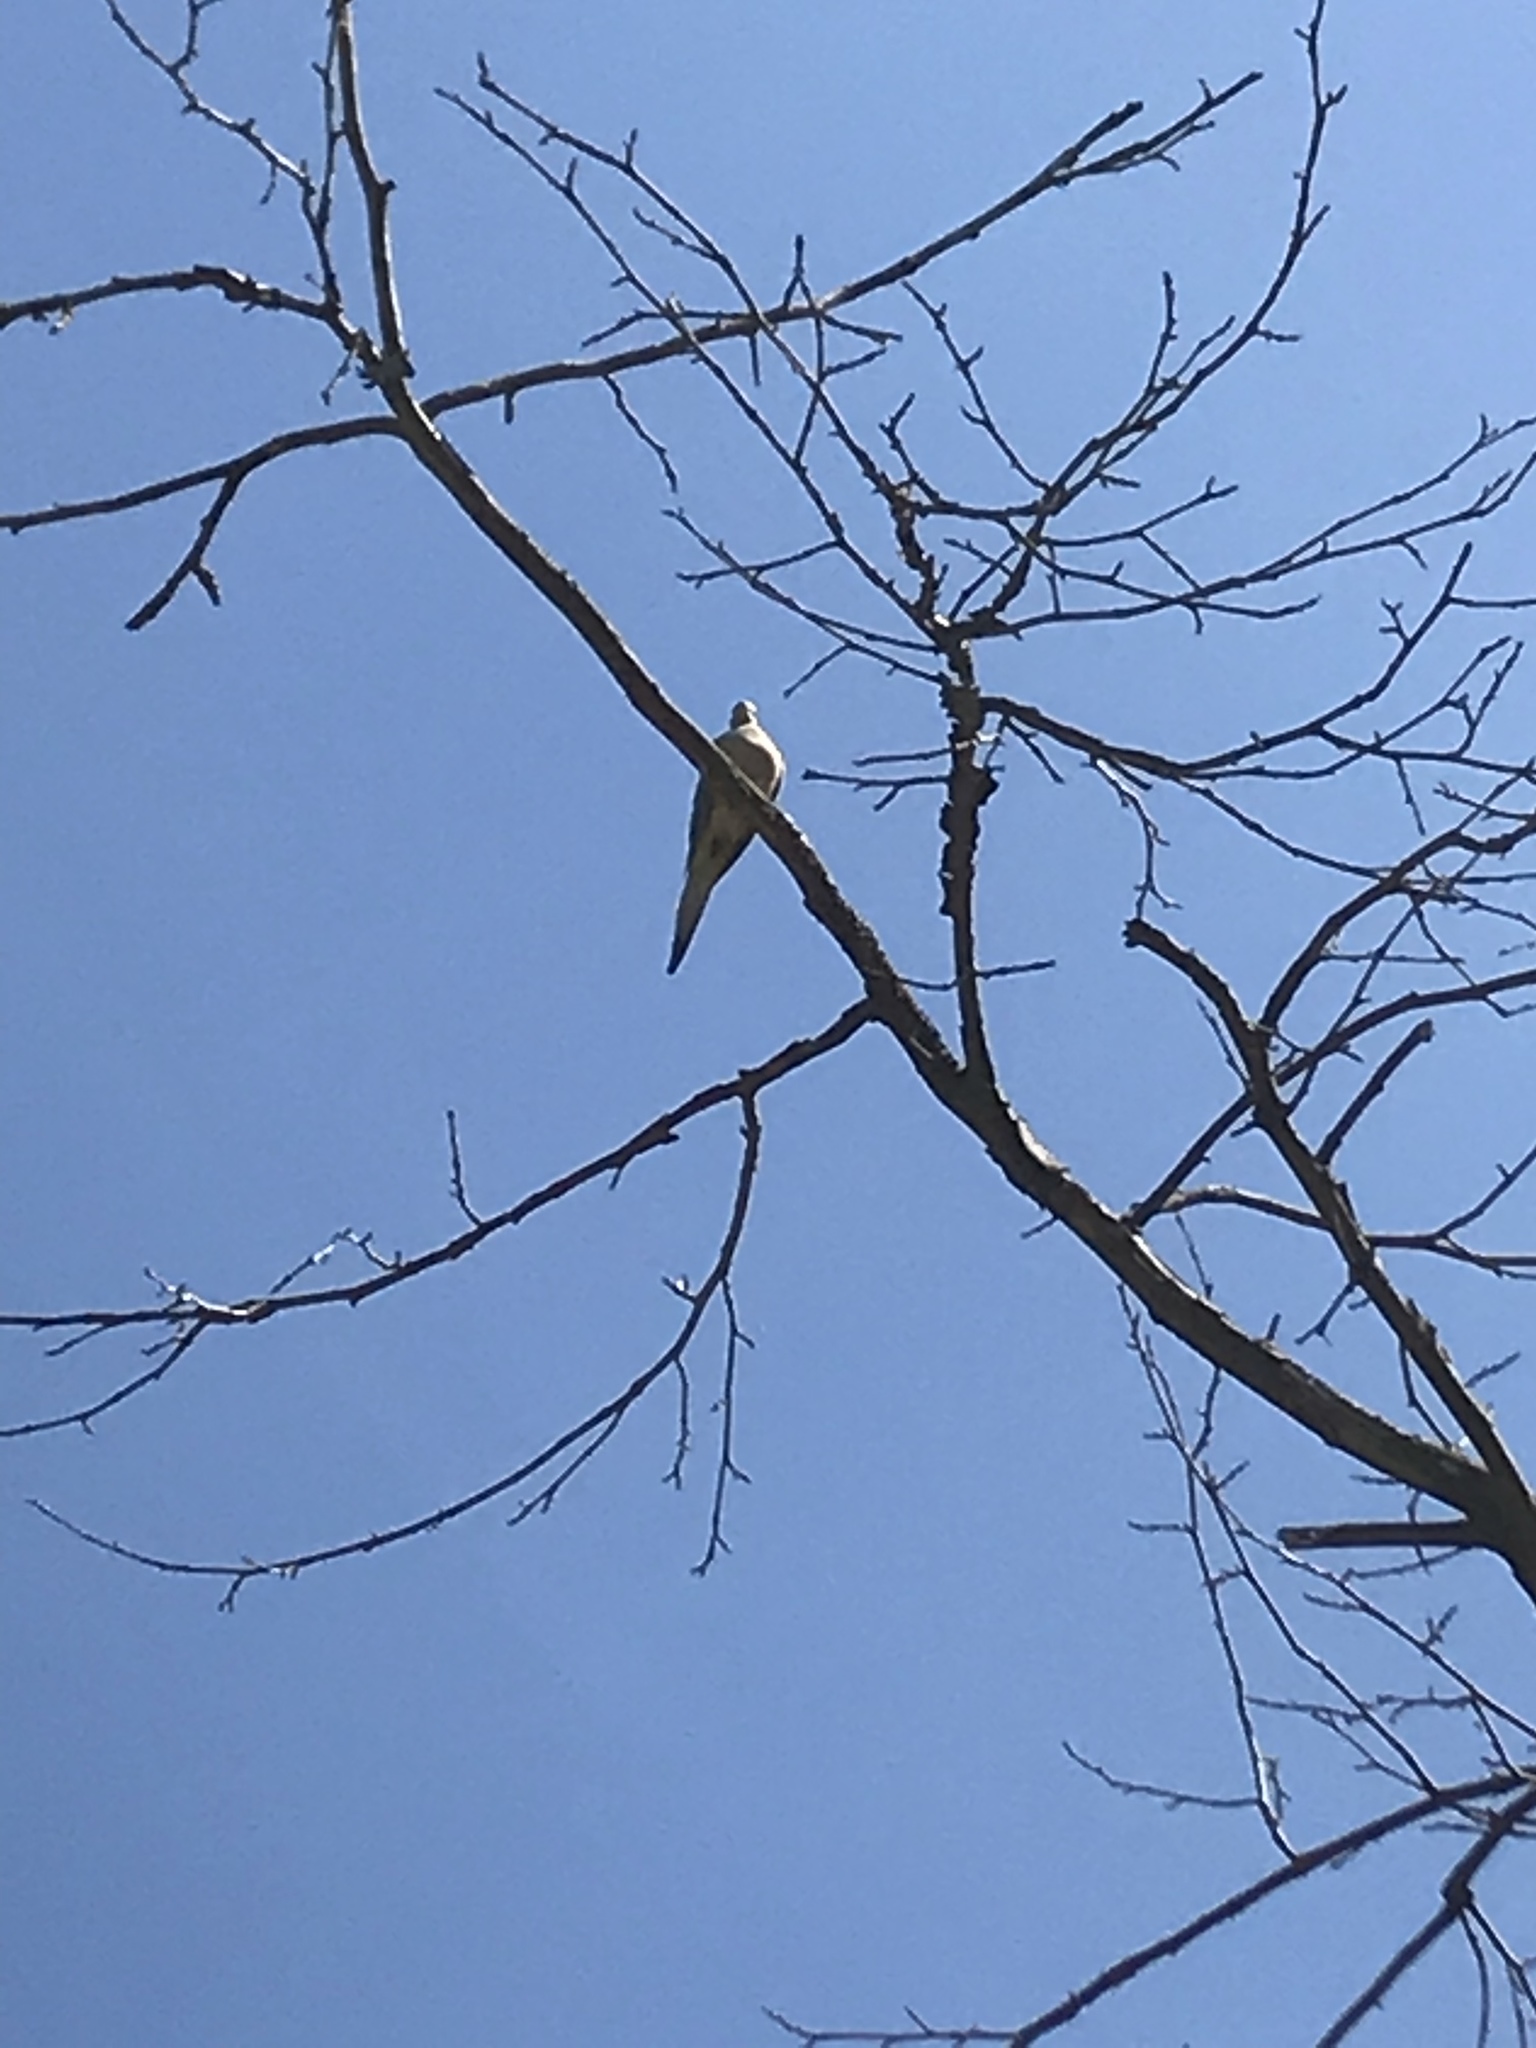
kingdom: Animalia
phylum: Chordata
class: Aves
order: Columbiformes
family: Columbidae
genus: Zenaida
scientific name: Zenaida macroura
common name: Mourning dove
